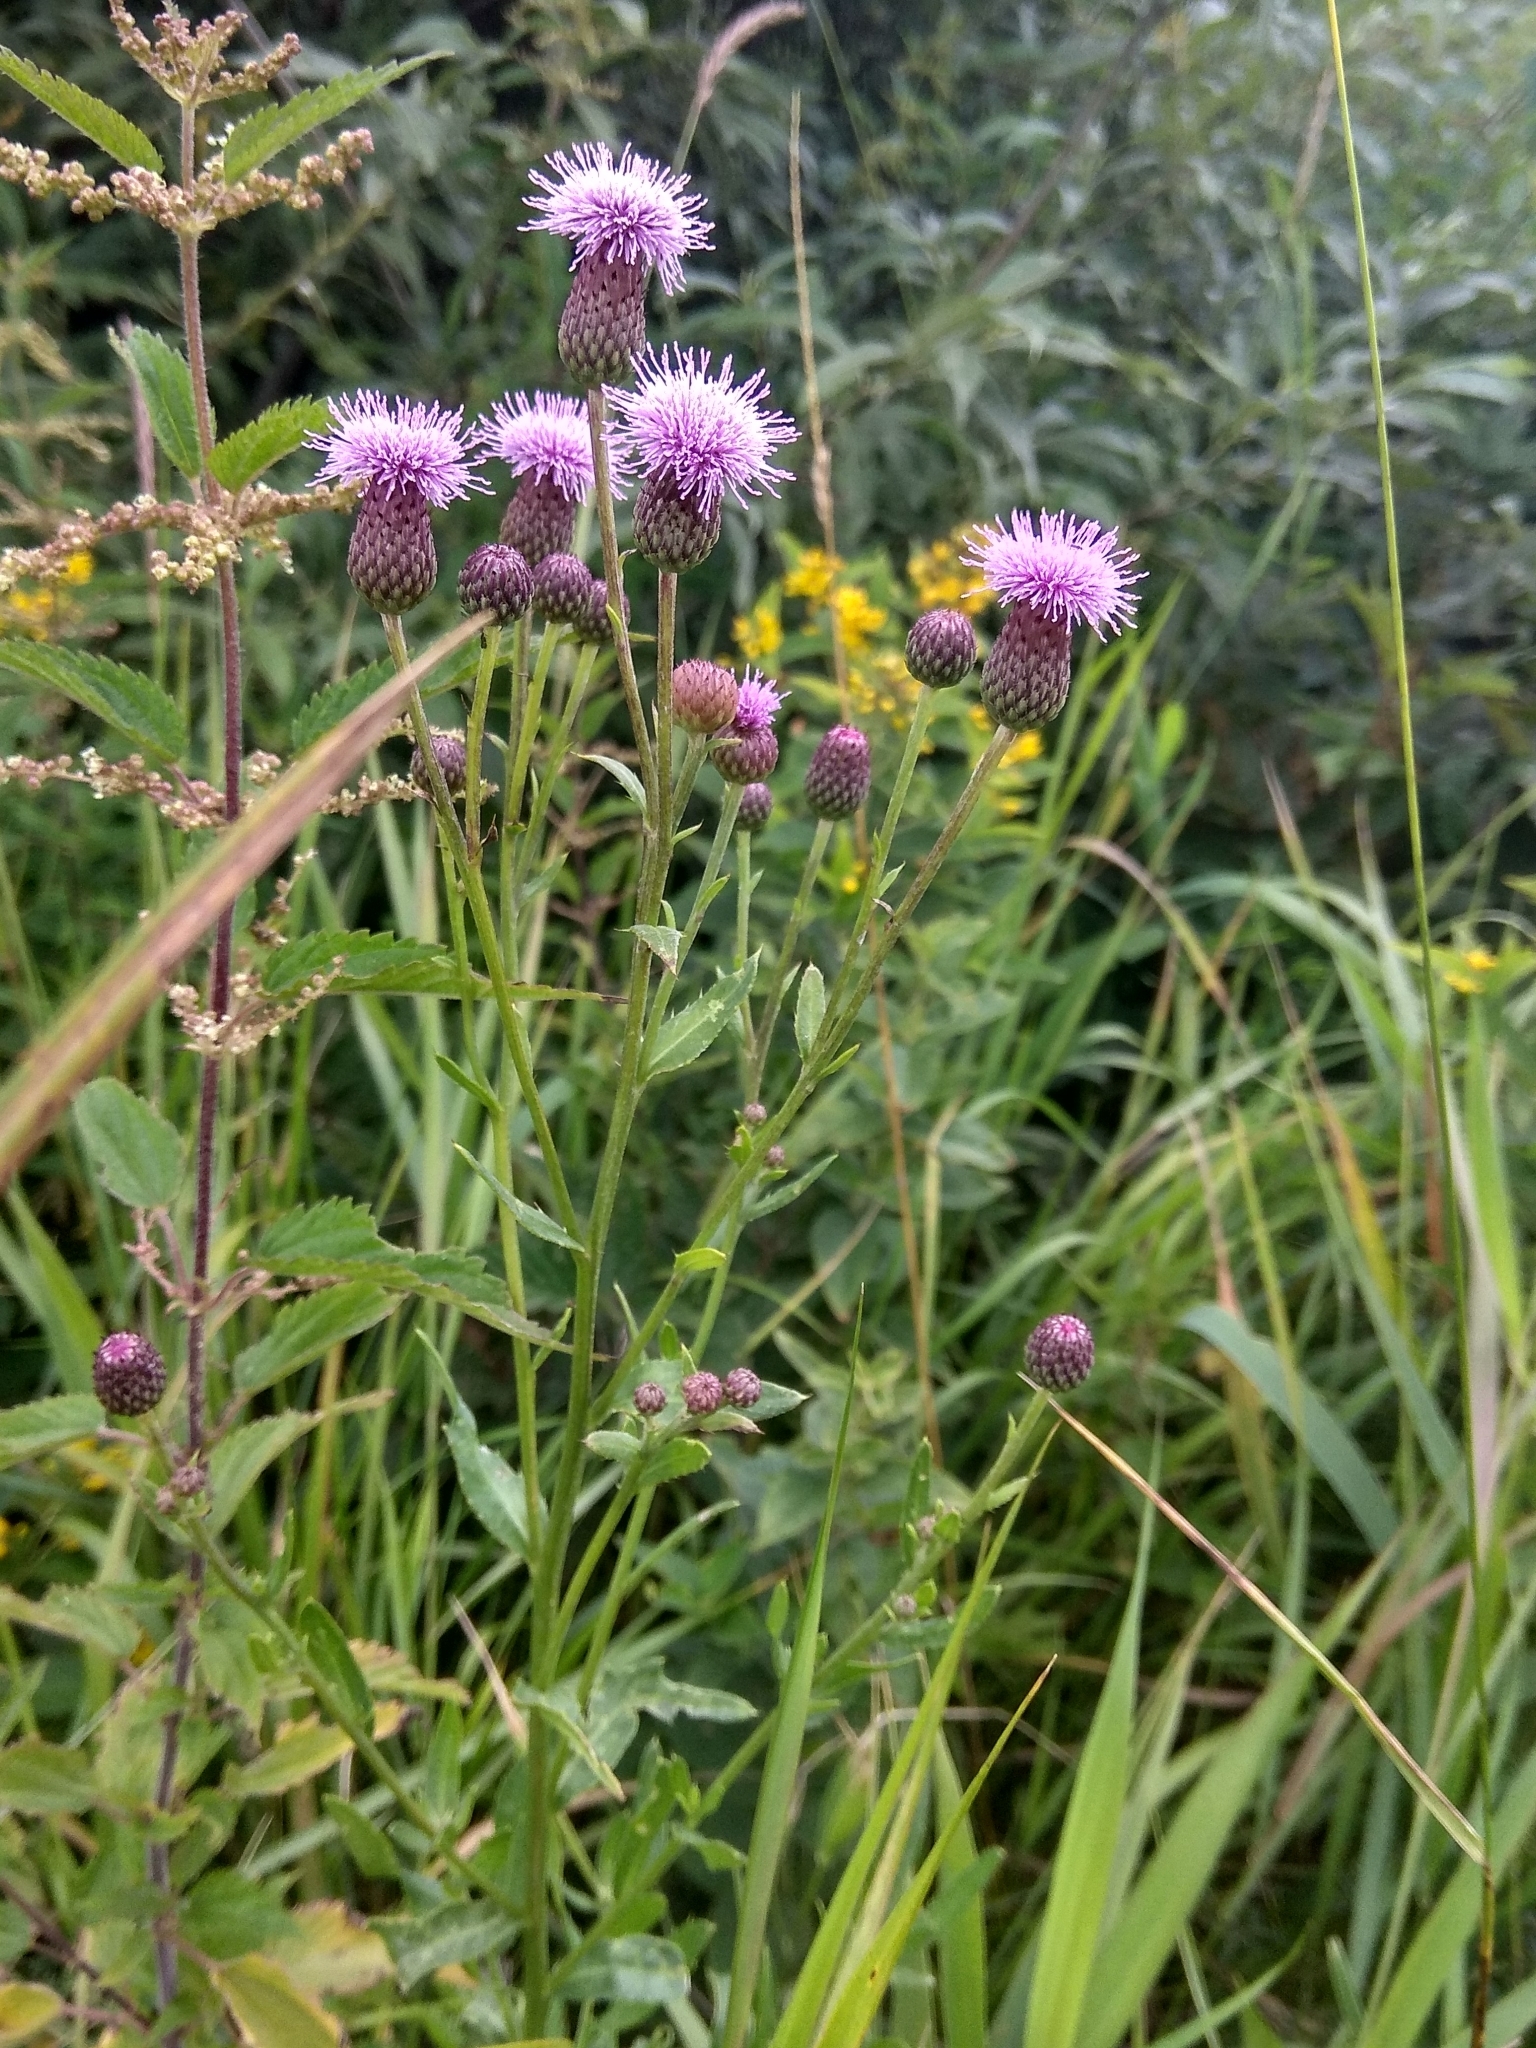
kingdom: Plantae
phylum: Tracheophyta
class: Magnoliopsida
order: Asterales
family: Asteraceae
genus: Cirsium
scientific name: Cirsium arvense
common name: Creeping thistle
